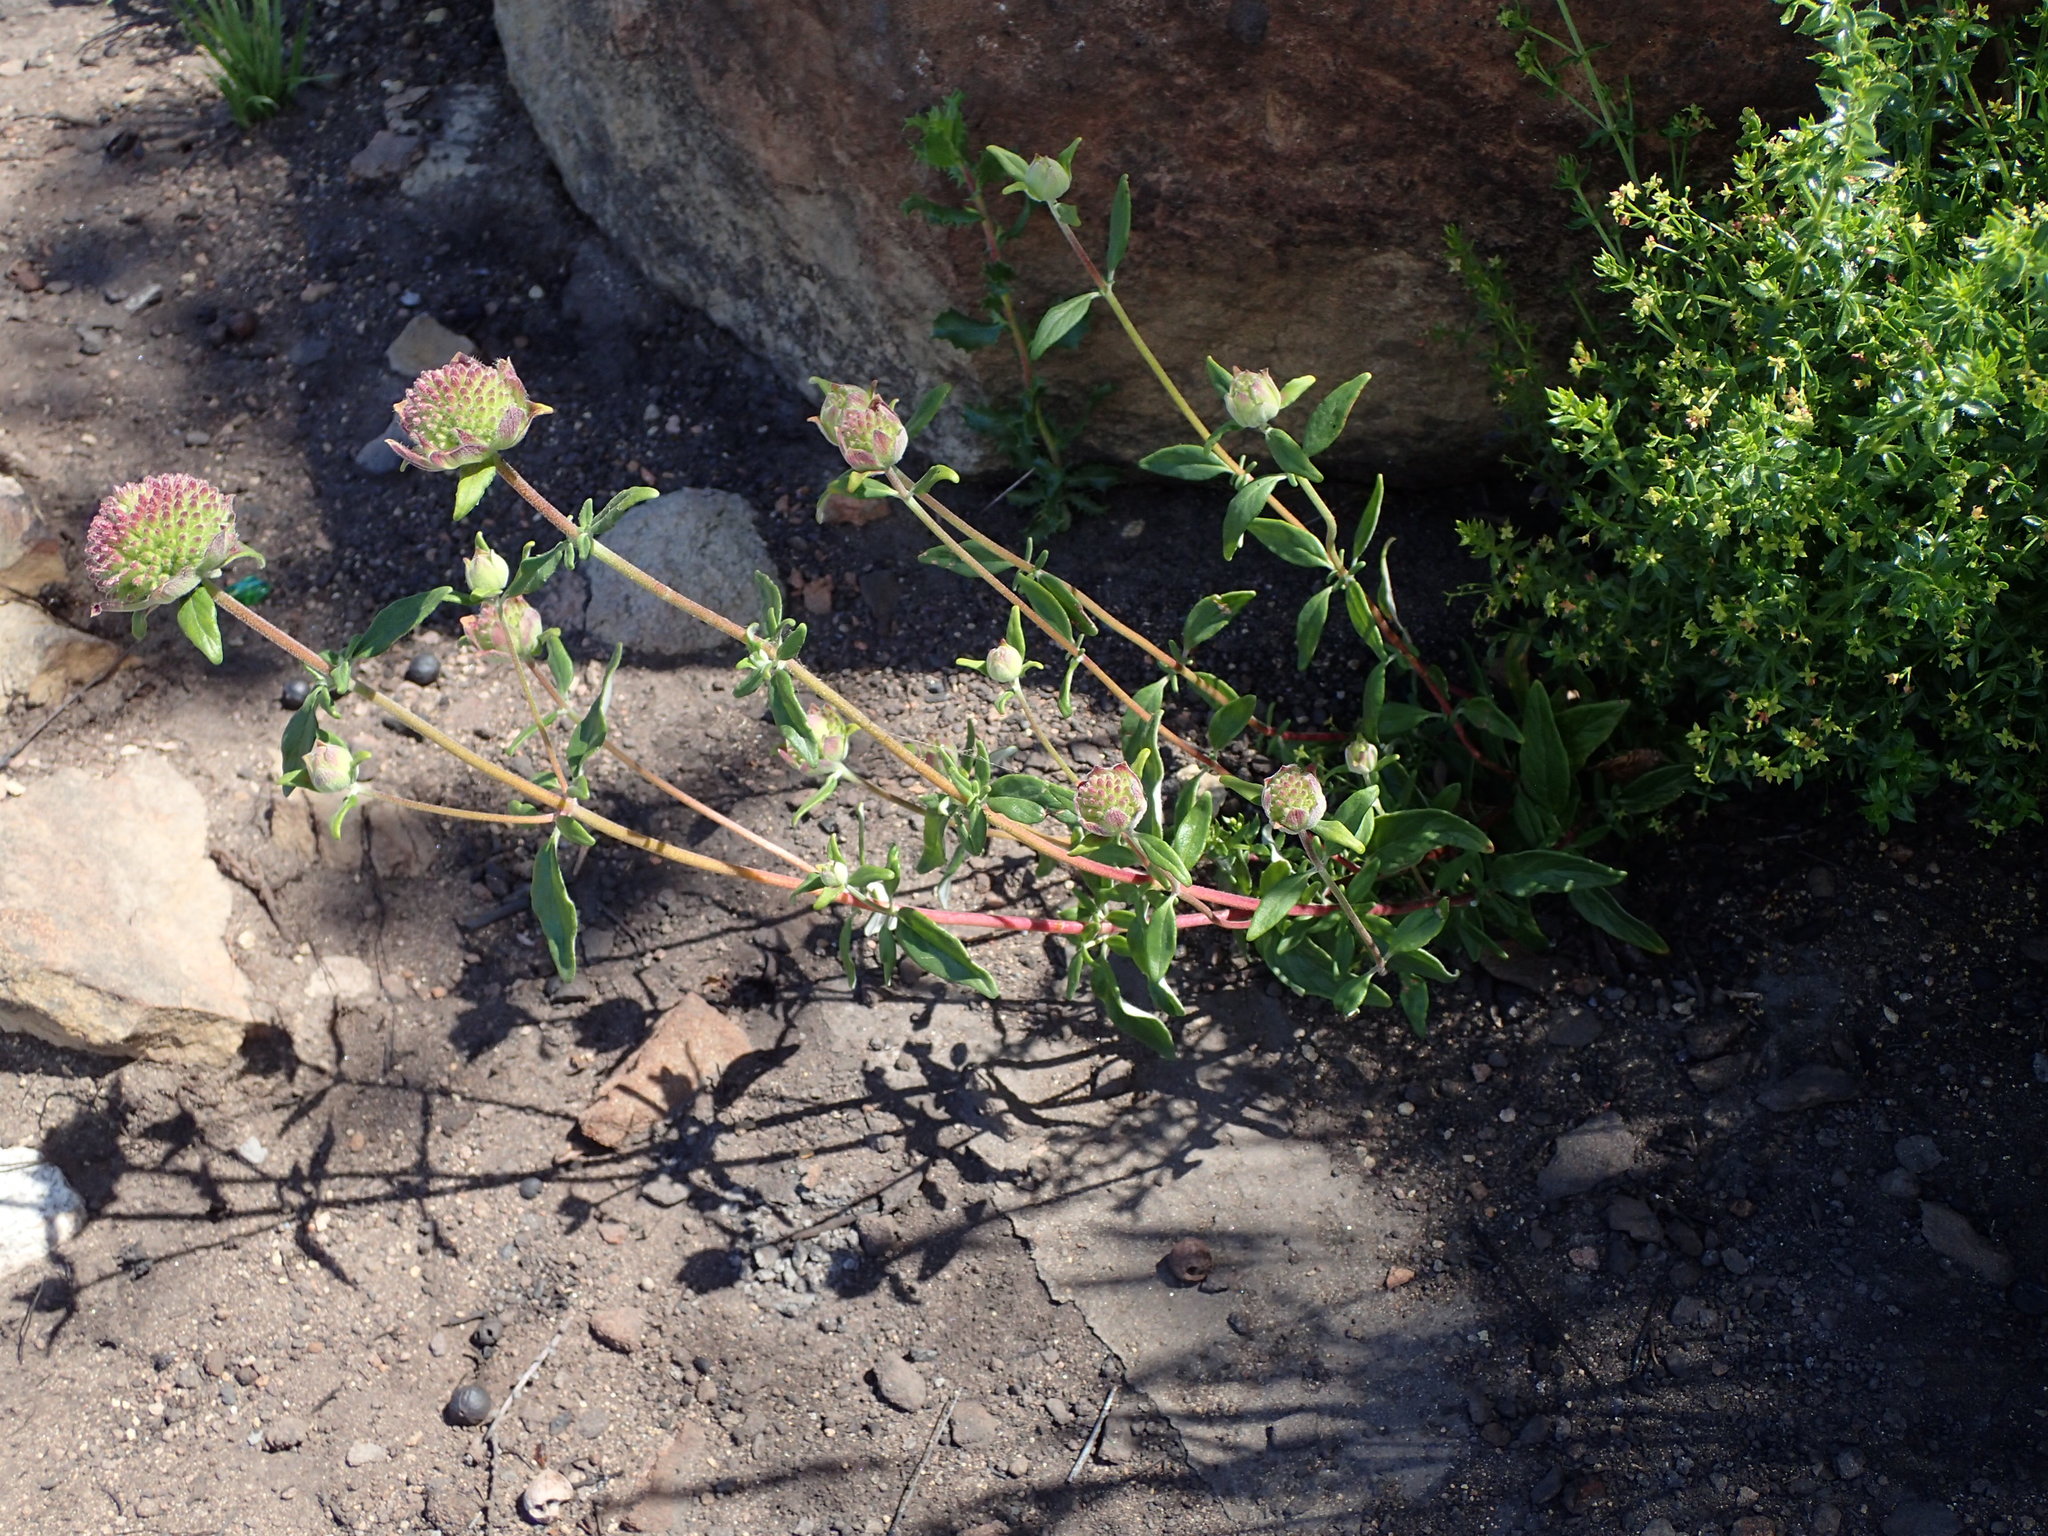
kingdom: Plantae
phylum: Tracheophyta
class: Magnoliopsida
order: Lamiales
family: Lamiaceae
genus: Monardella
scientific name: Monardella hypoleuca
